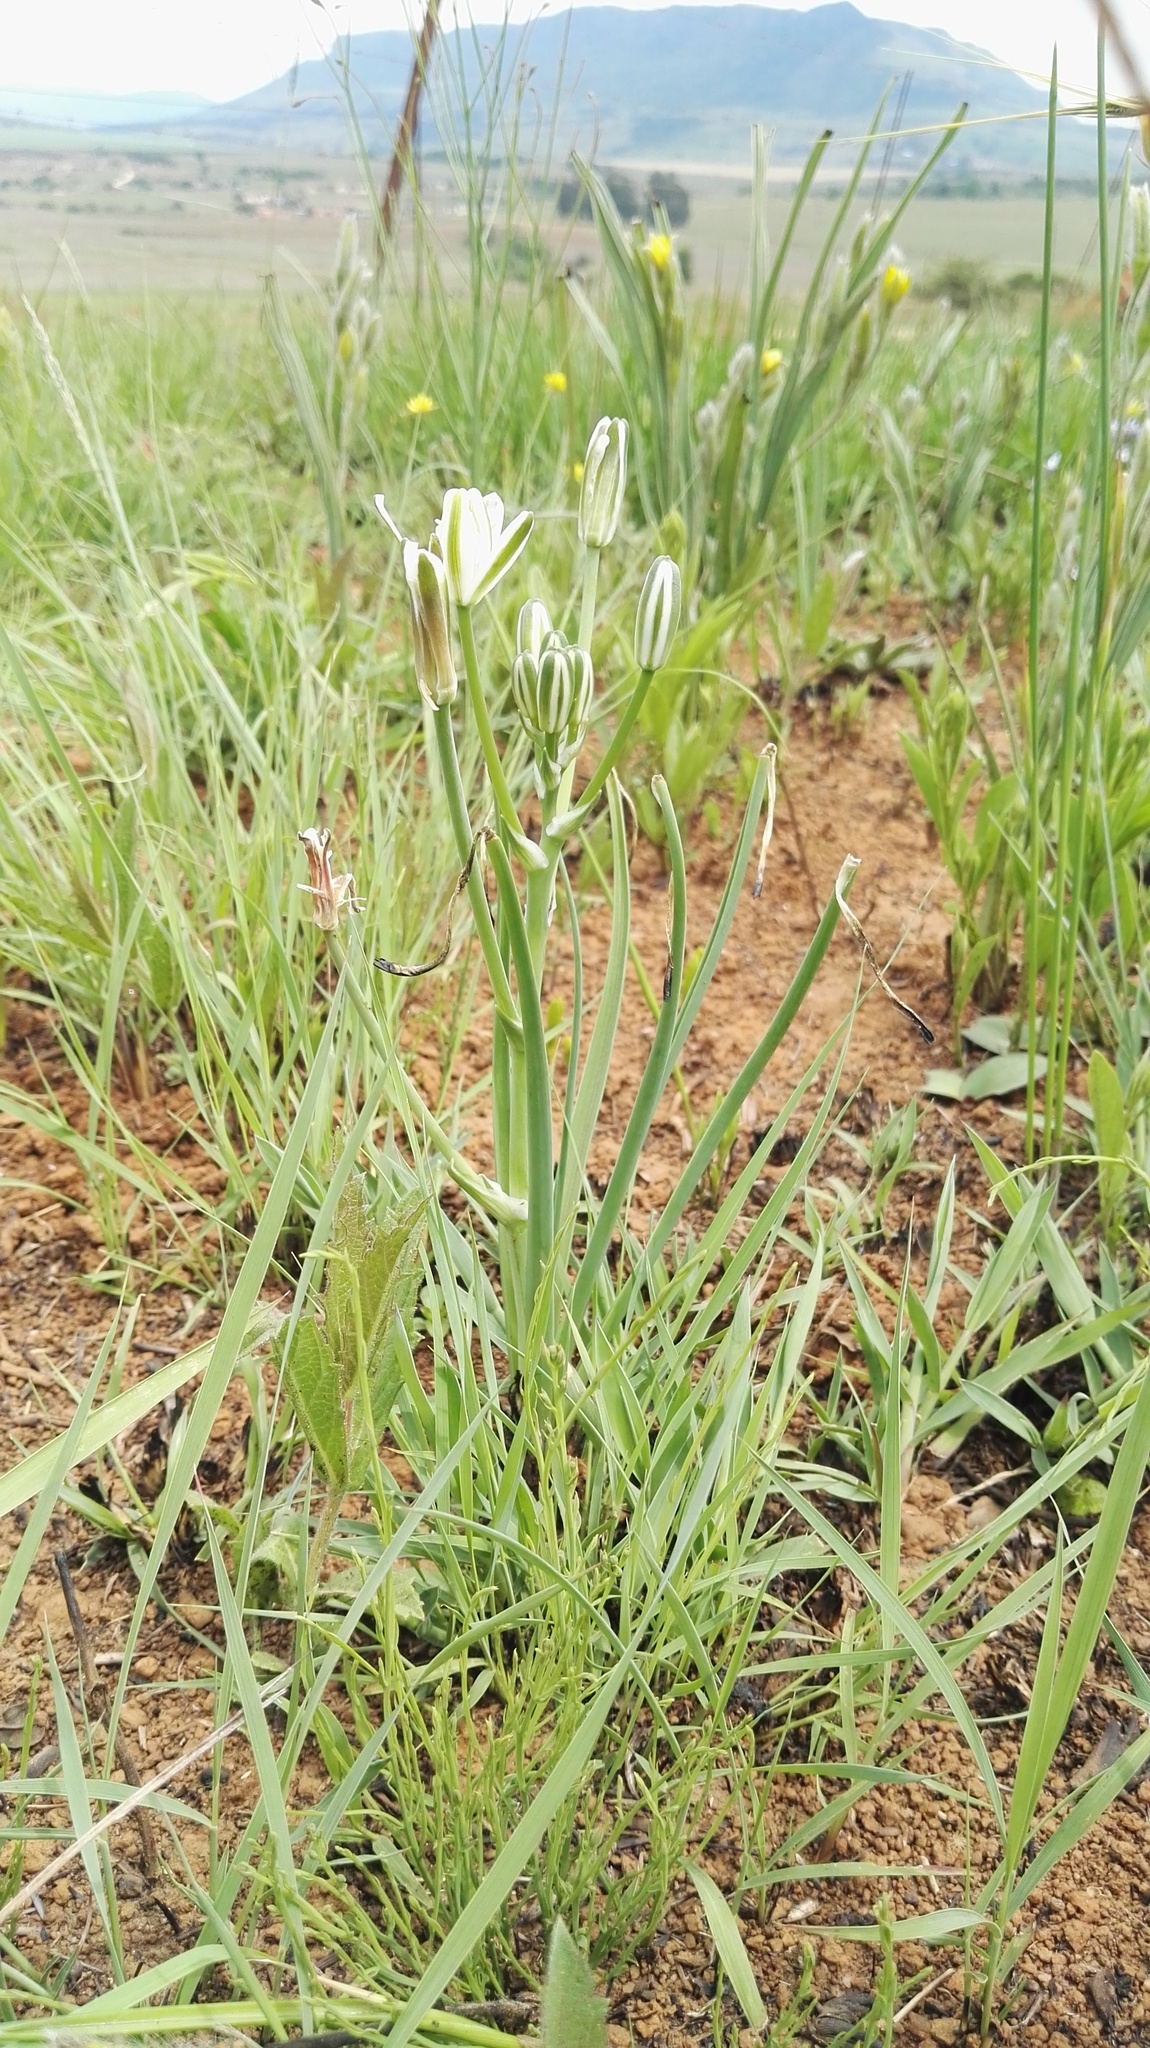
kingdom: Plantae
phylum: Tracheophyta
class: Liliopsida
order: Asparagales
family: Asparagaceae
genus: Albuca
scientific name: Albuca setosa
